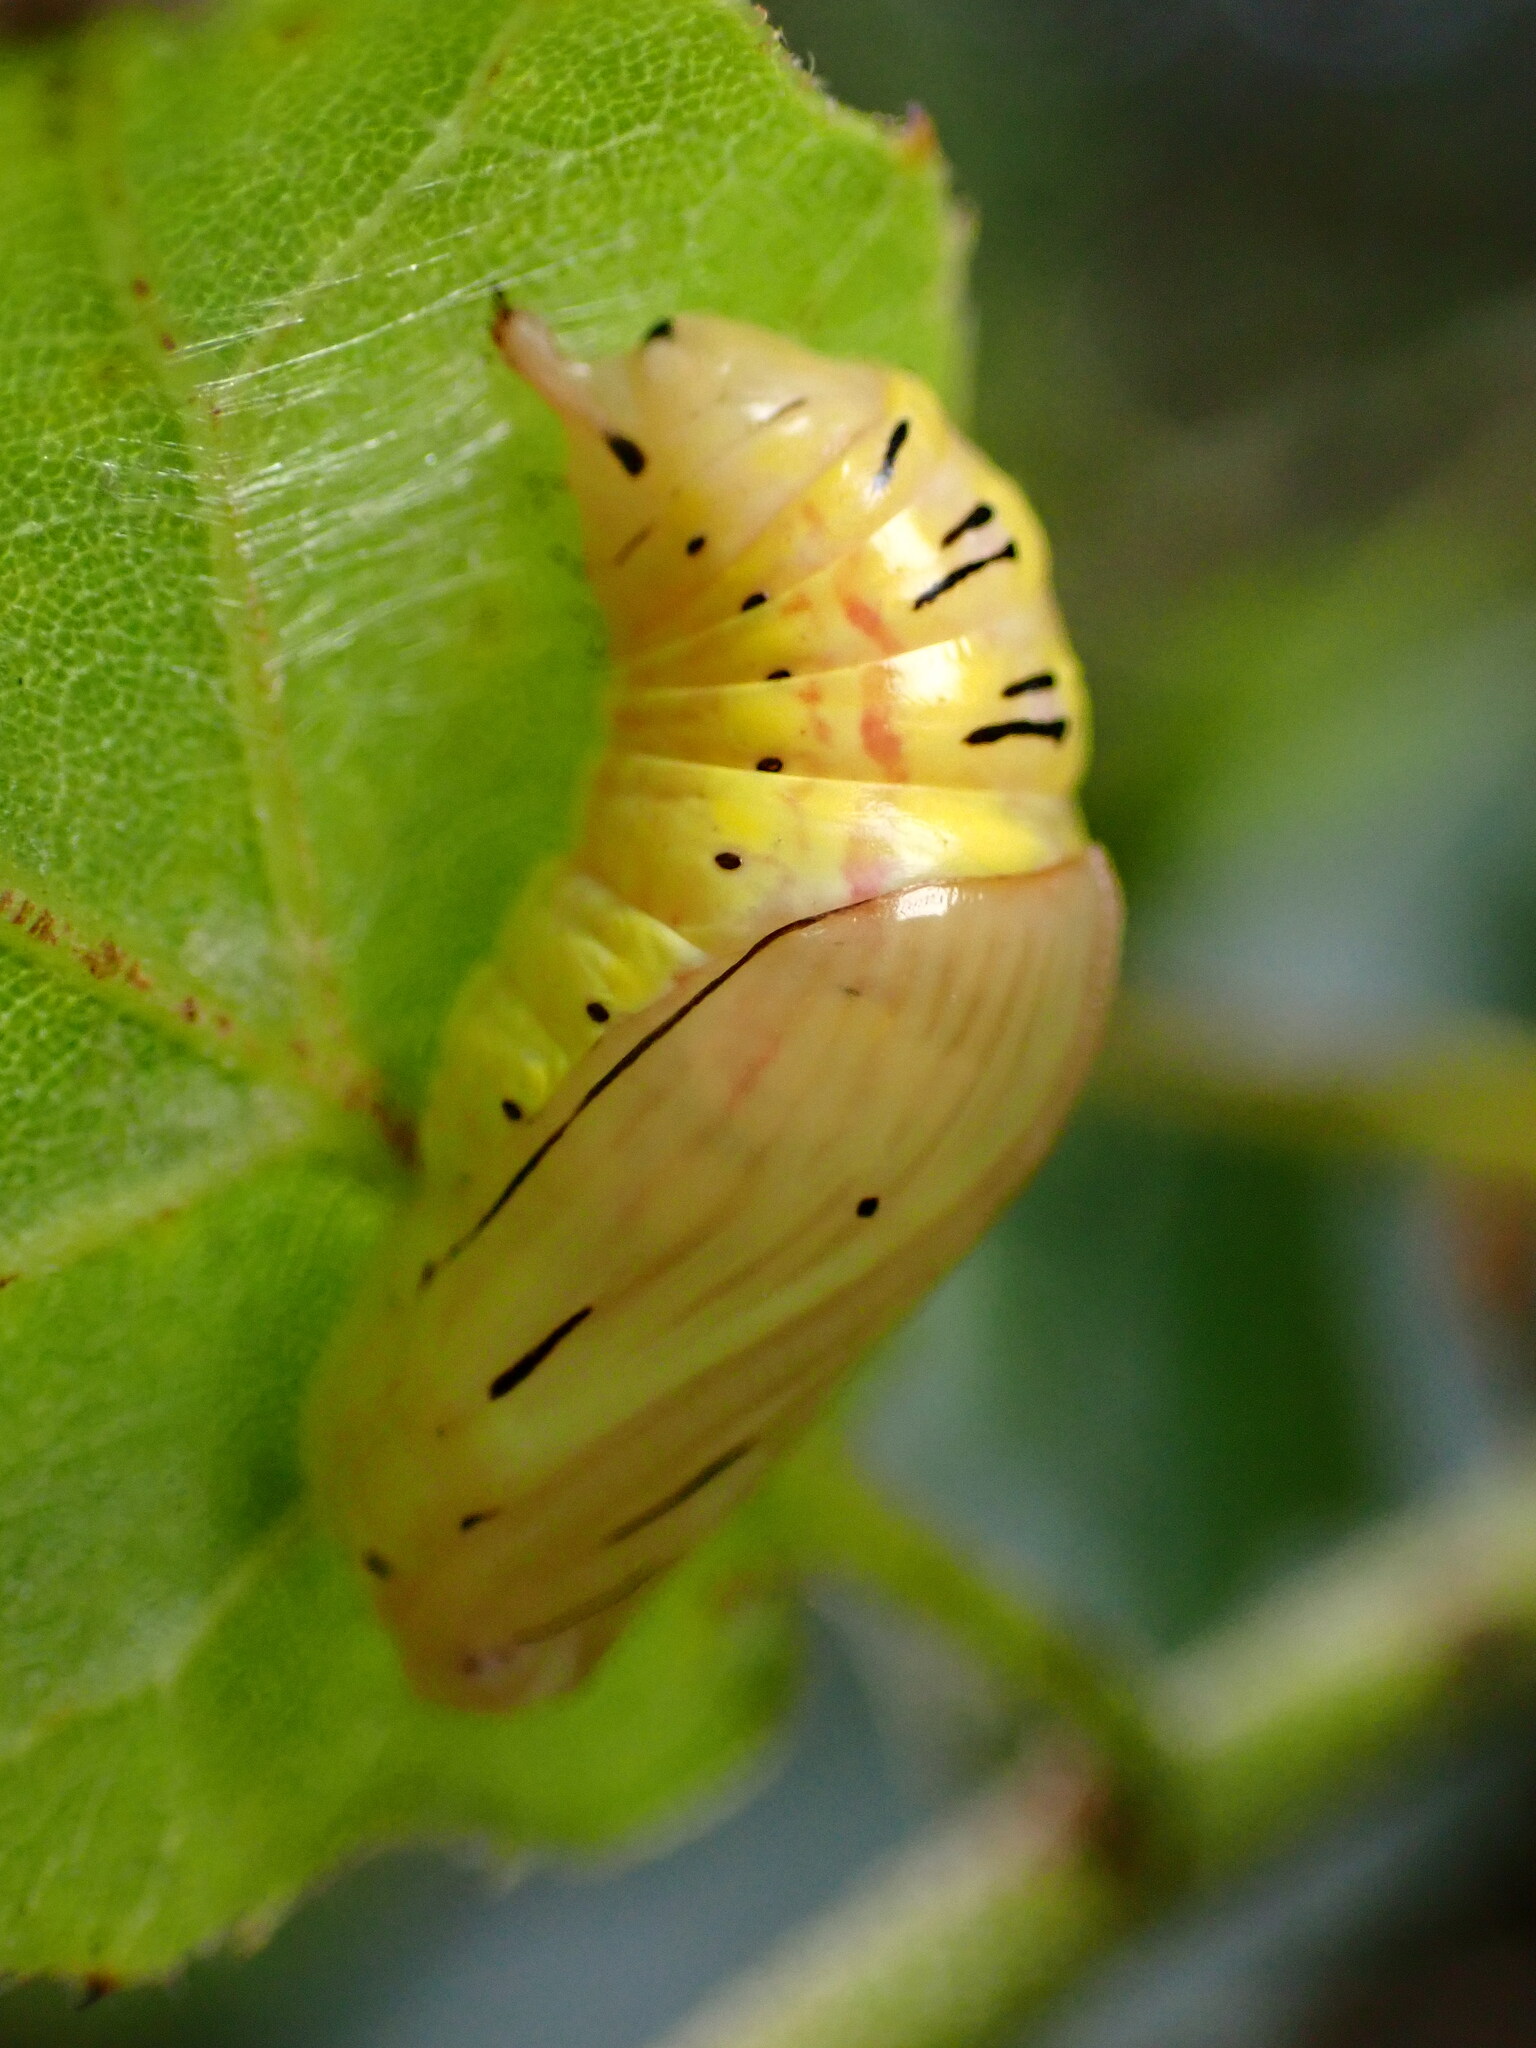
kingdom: Animalia
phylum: Arthropoda
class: Insecta
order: Lepidoptera
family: Notodontidae
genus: Phryganidia
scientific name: Phryganidia californica
